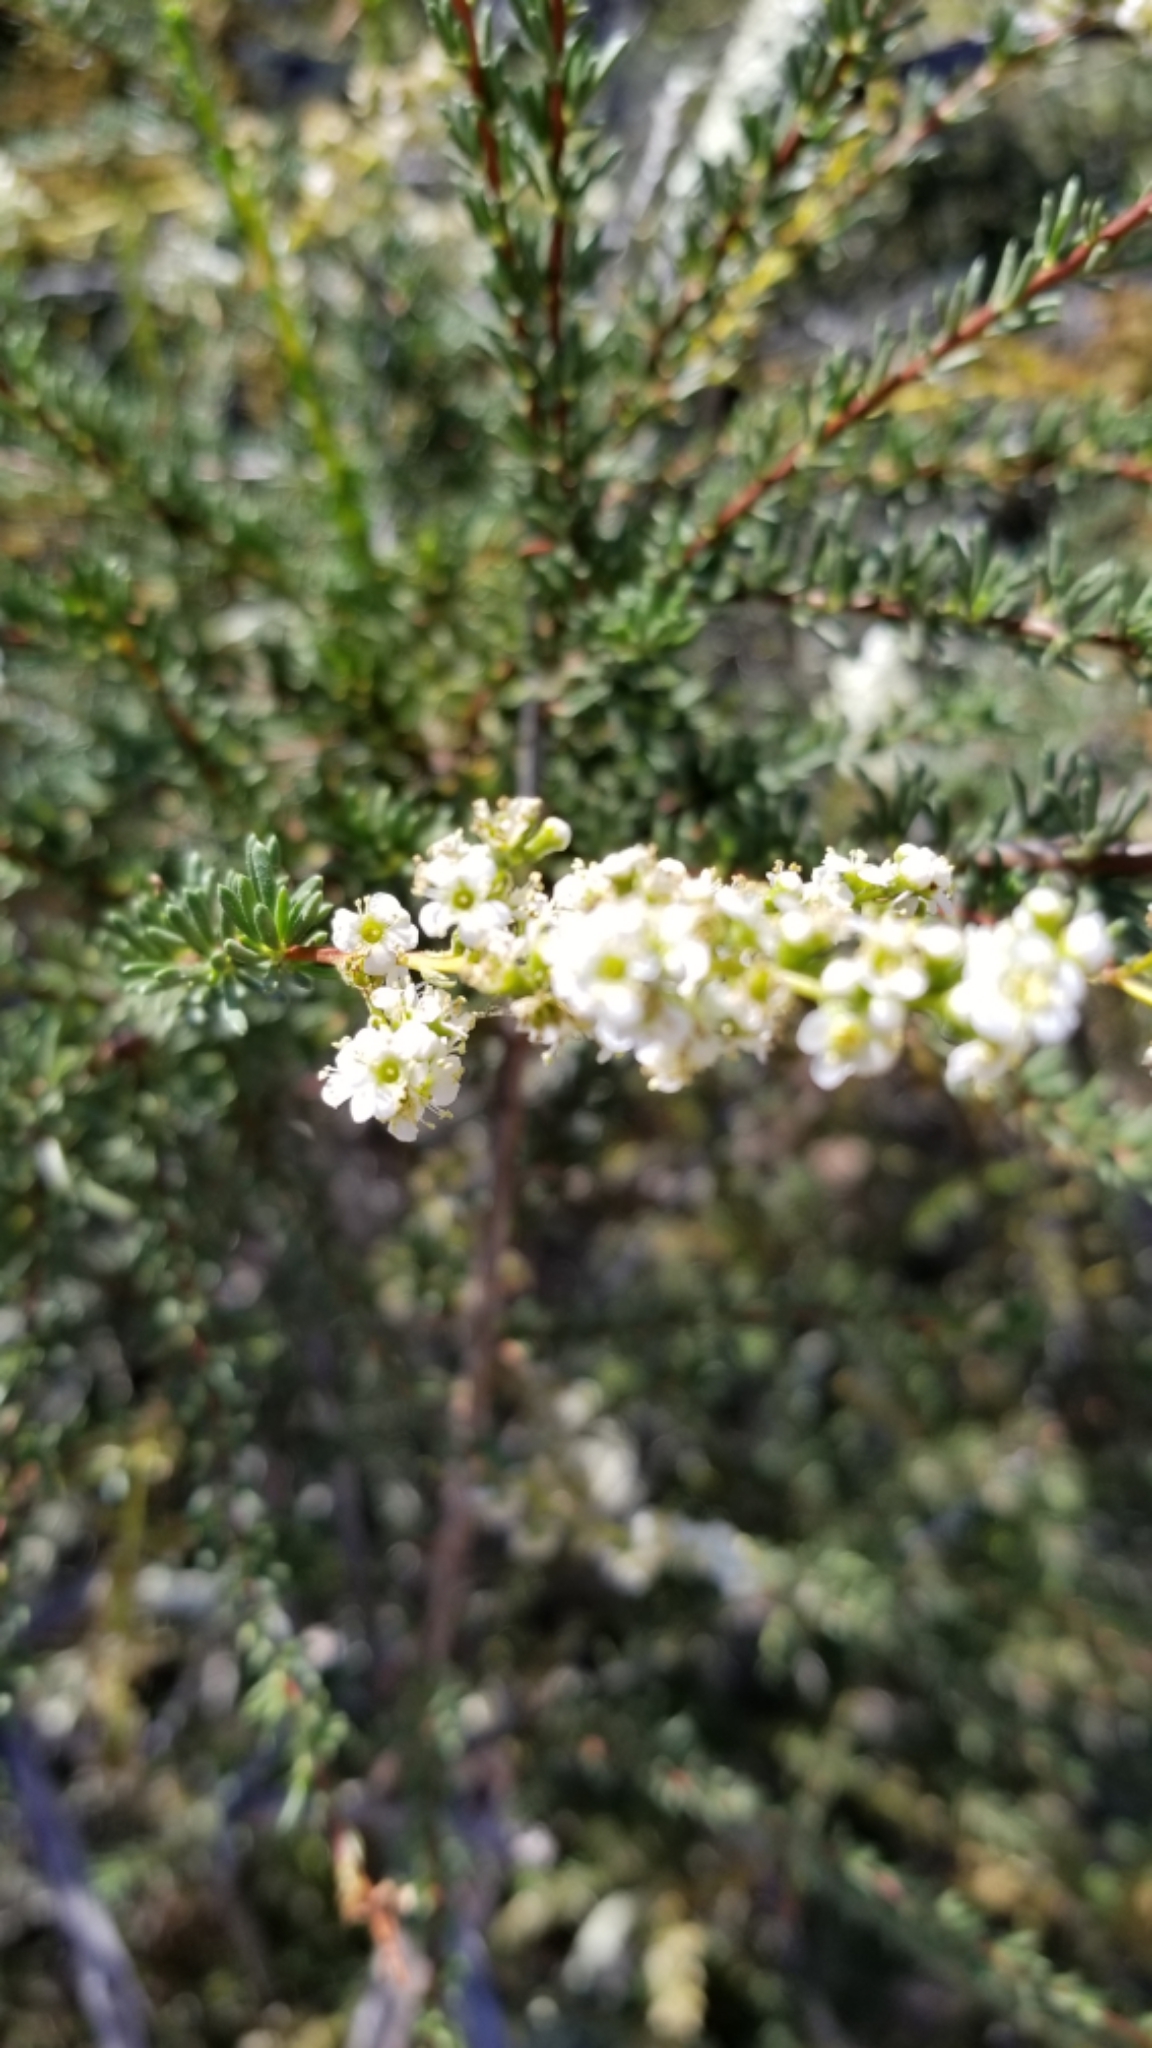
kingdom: Plantae
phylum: Tracheophyta
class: Magnoliopsida
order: Rosales
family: Rosaceae
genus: Adenostoma
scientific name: Adenostoma fasciculatum
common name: Chamise
